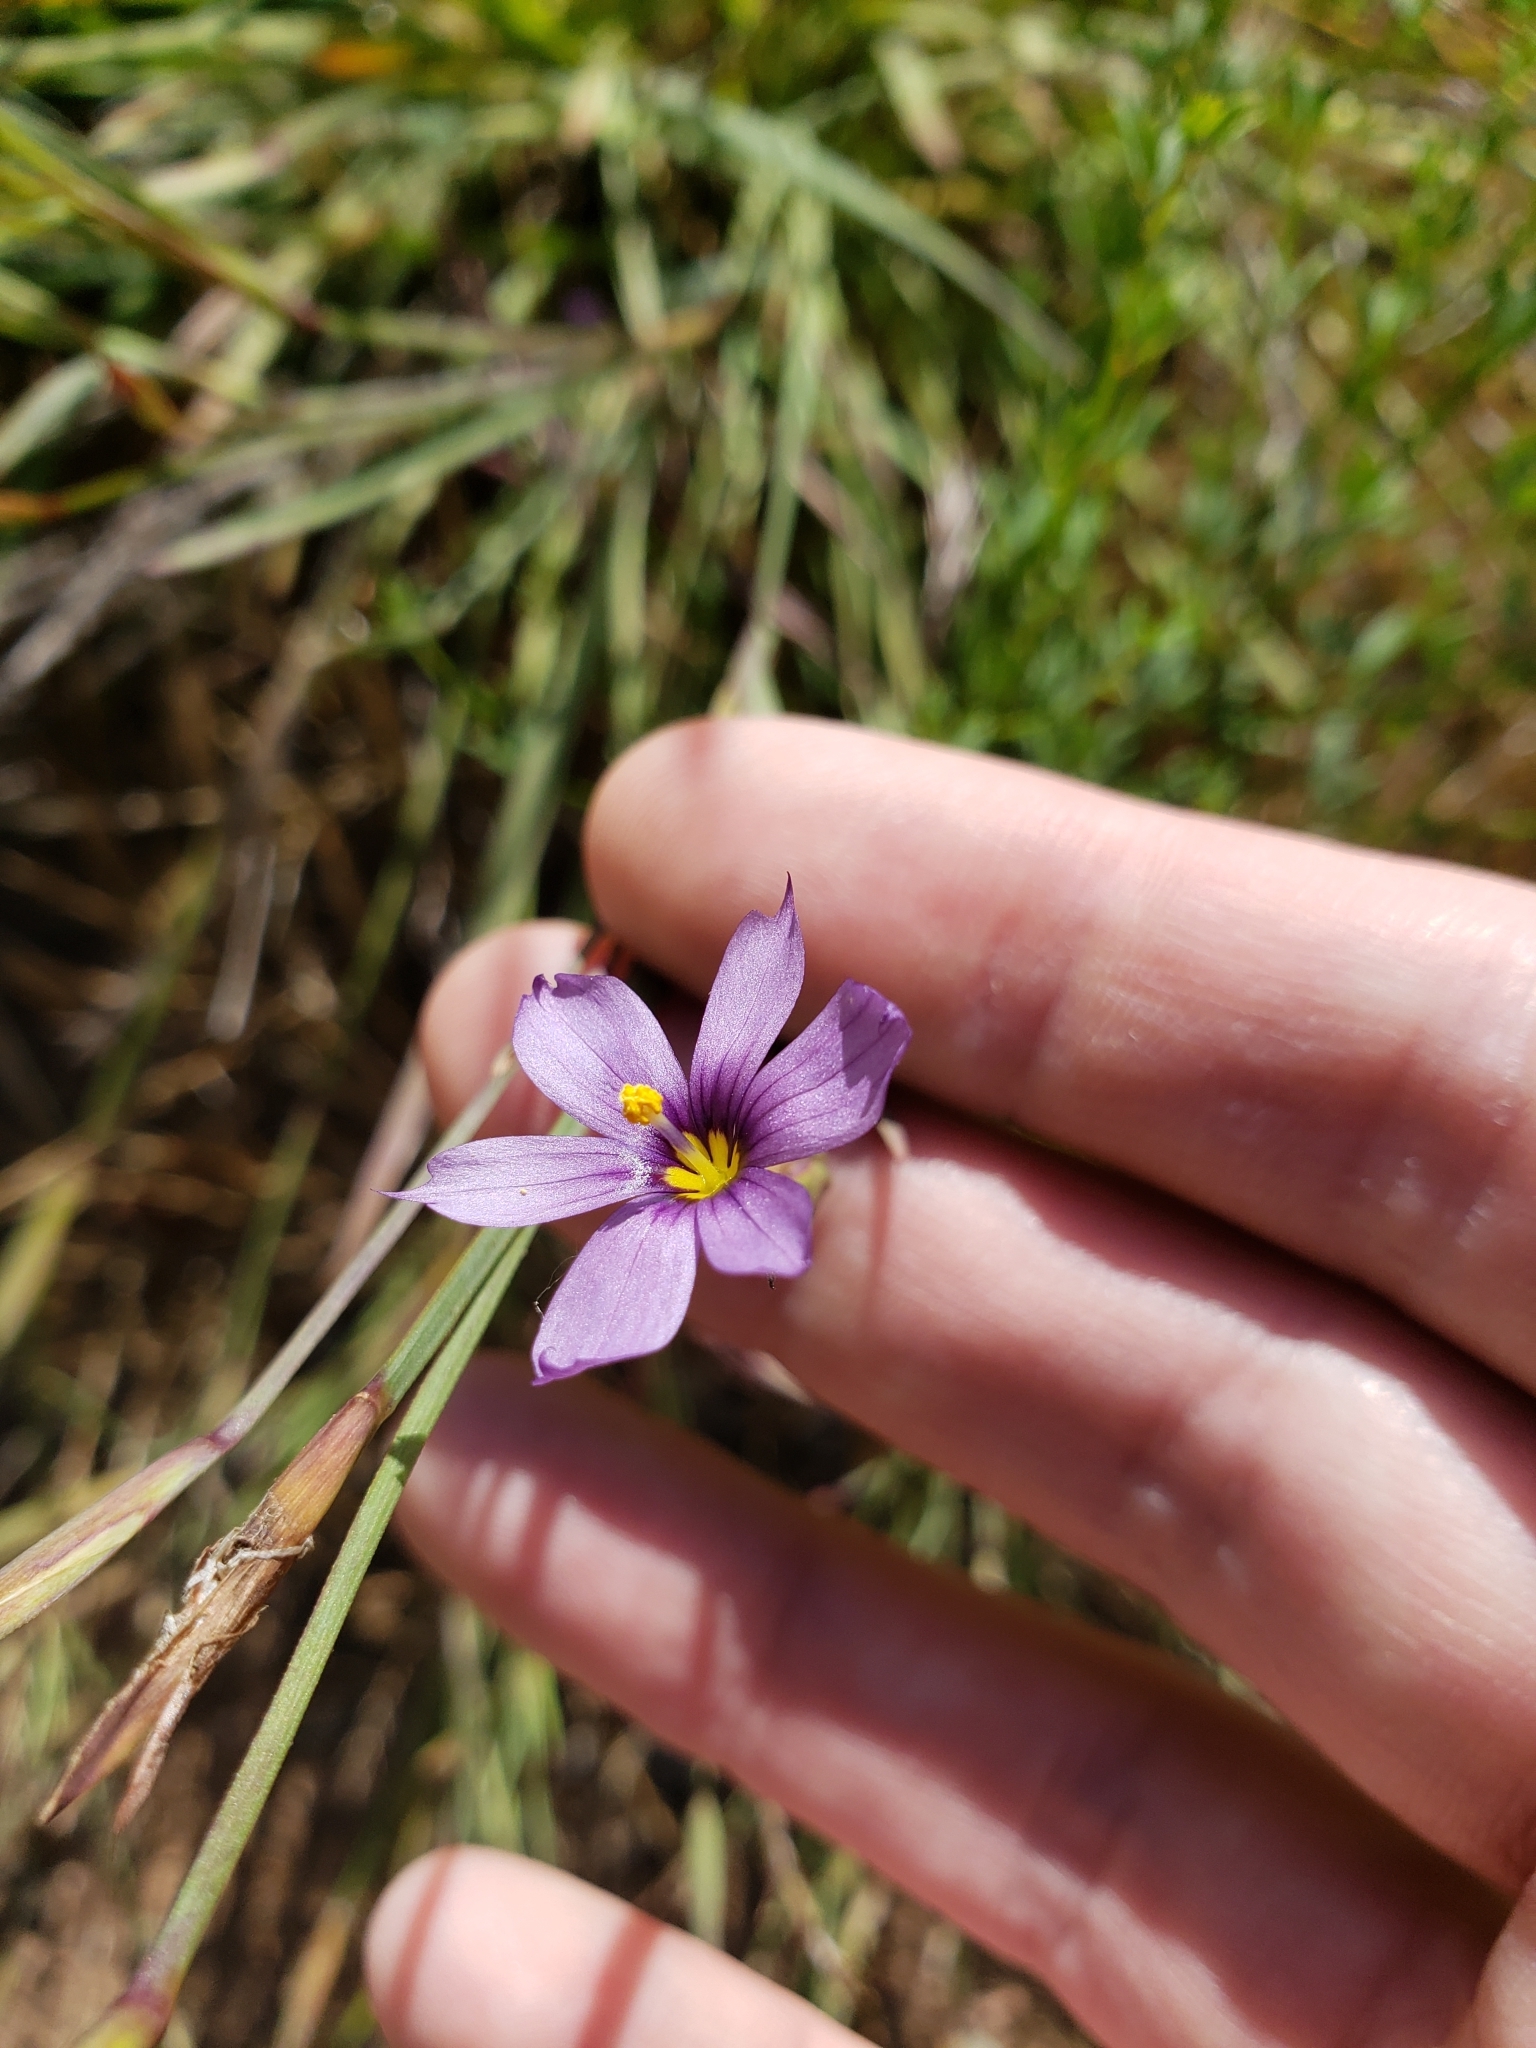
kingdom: Plantae
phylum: Tracheophyta
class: Liliopsida
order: Asparagales
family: Iridaceae
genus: Sisyrinchium
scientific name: Sisyrinchium bellum
